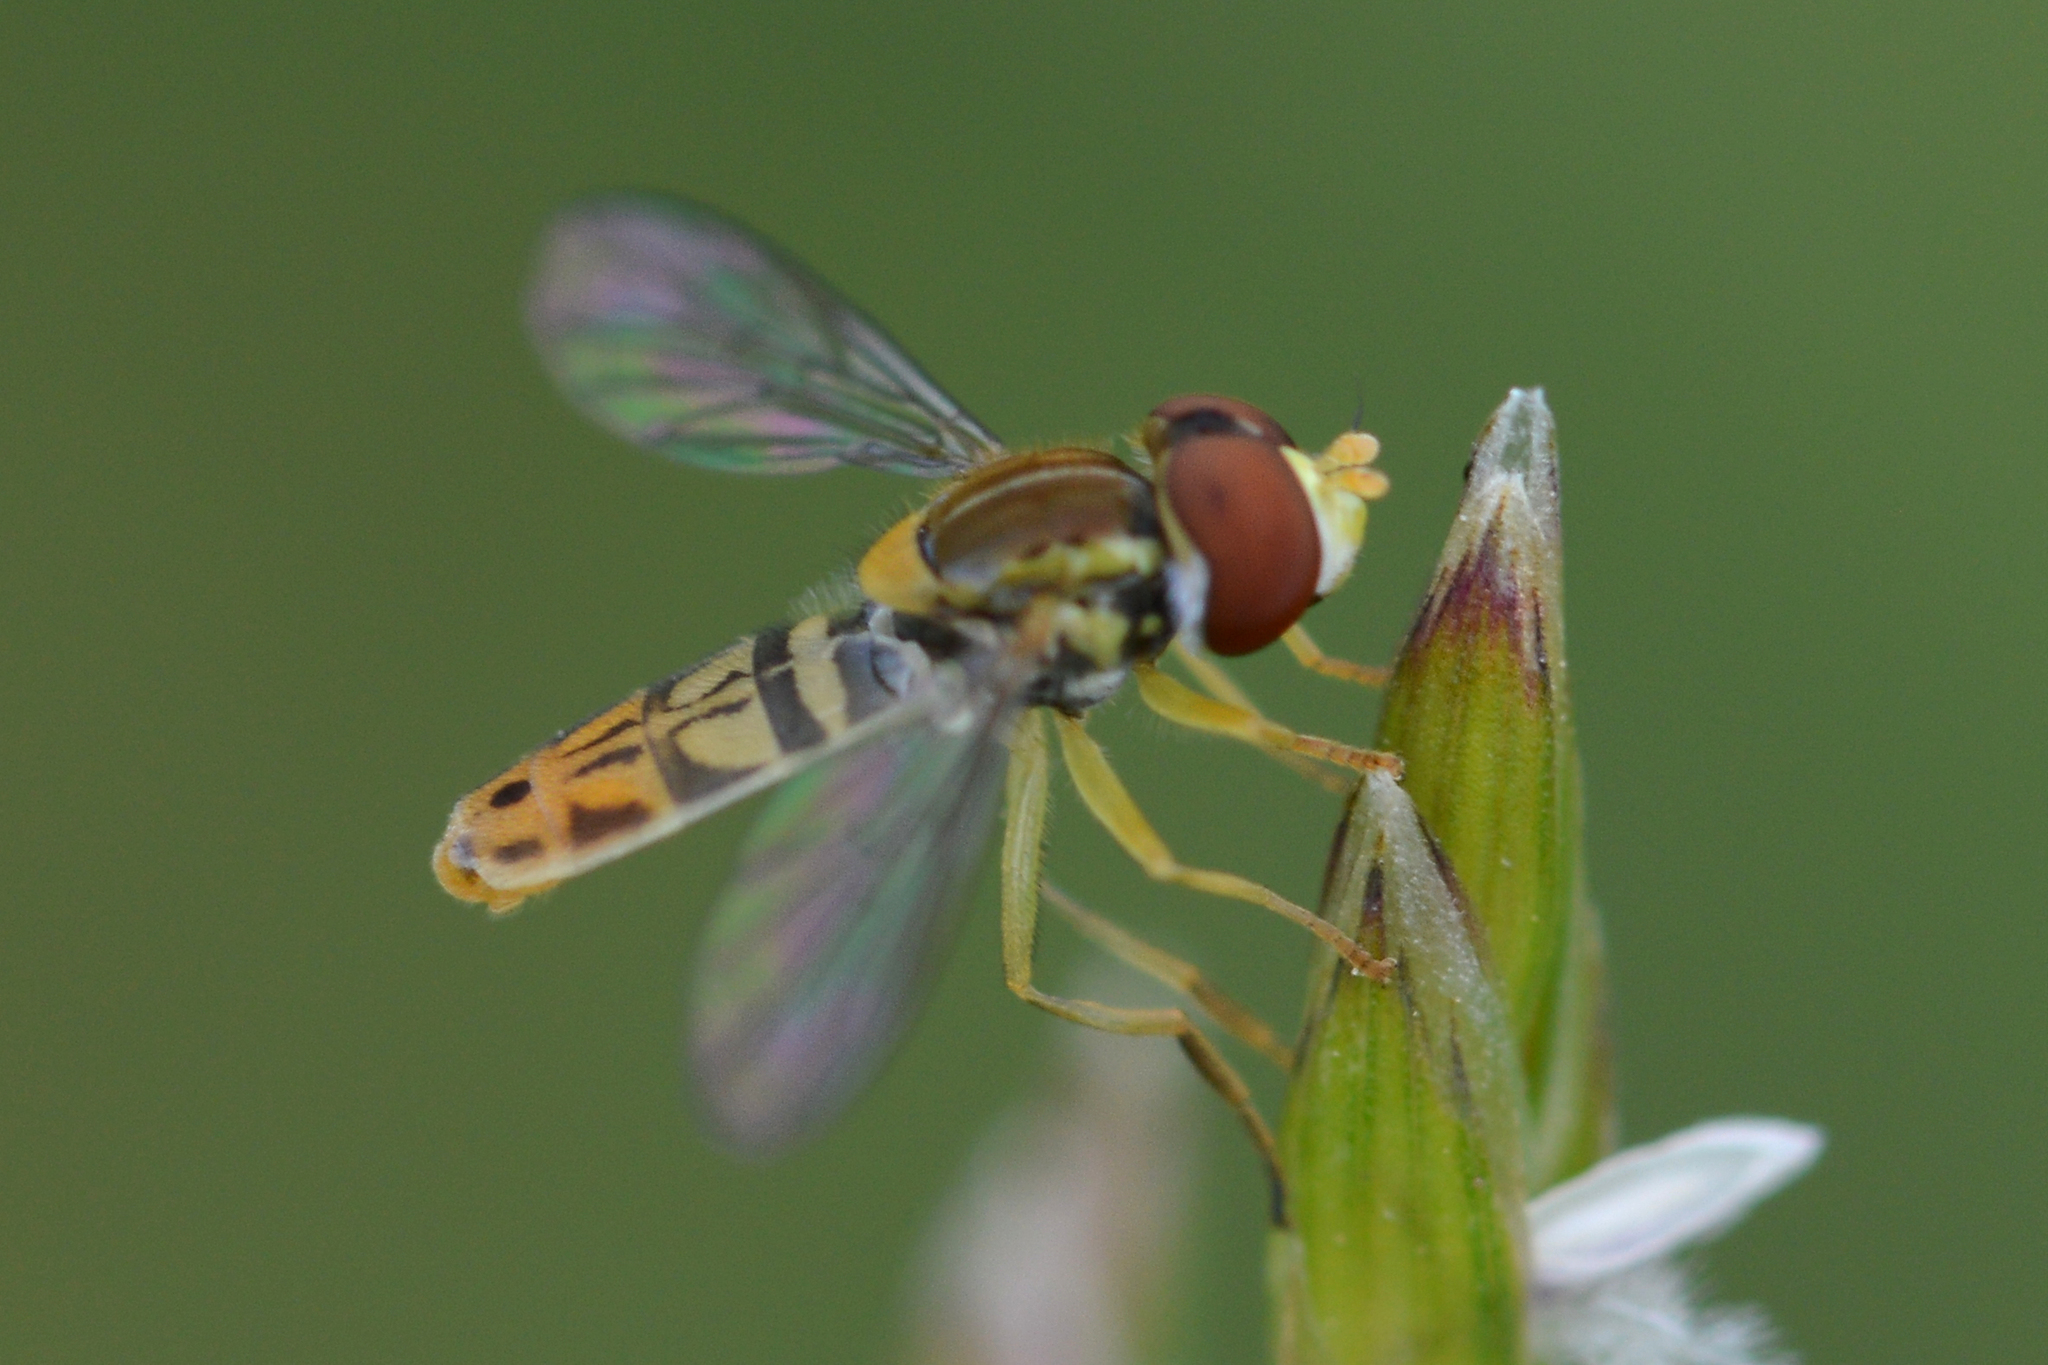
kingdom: Animalia
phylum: Arthropoda
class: Insecta
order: Diptera
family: Syrphidae
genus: Toxomerus
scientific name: Toxomerus marginatus
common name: Syrphid fly
